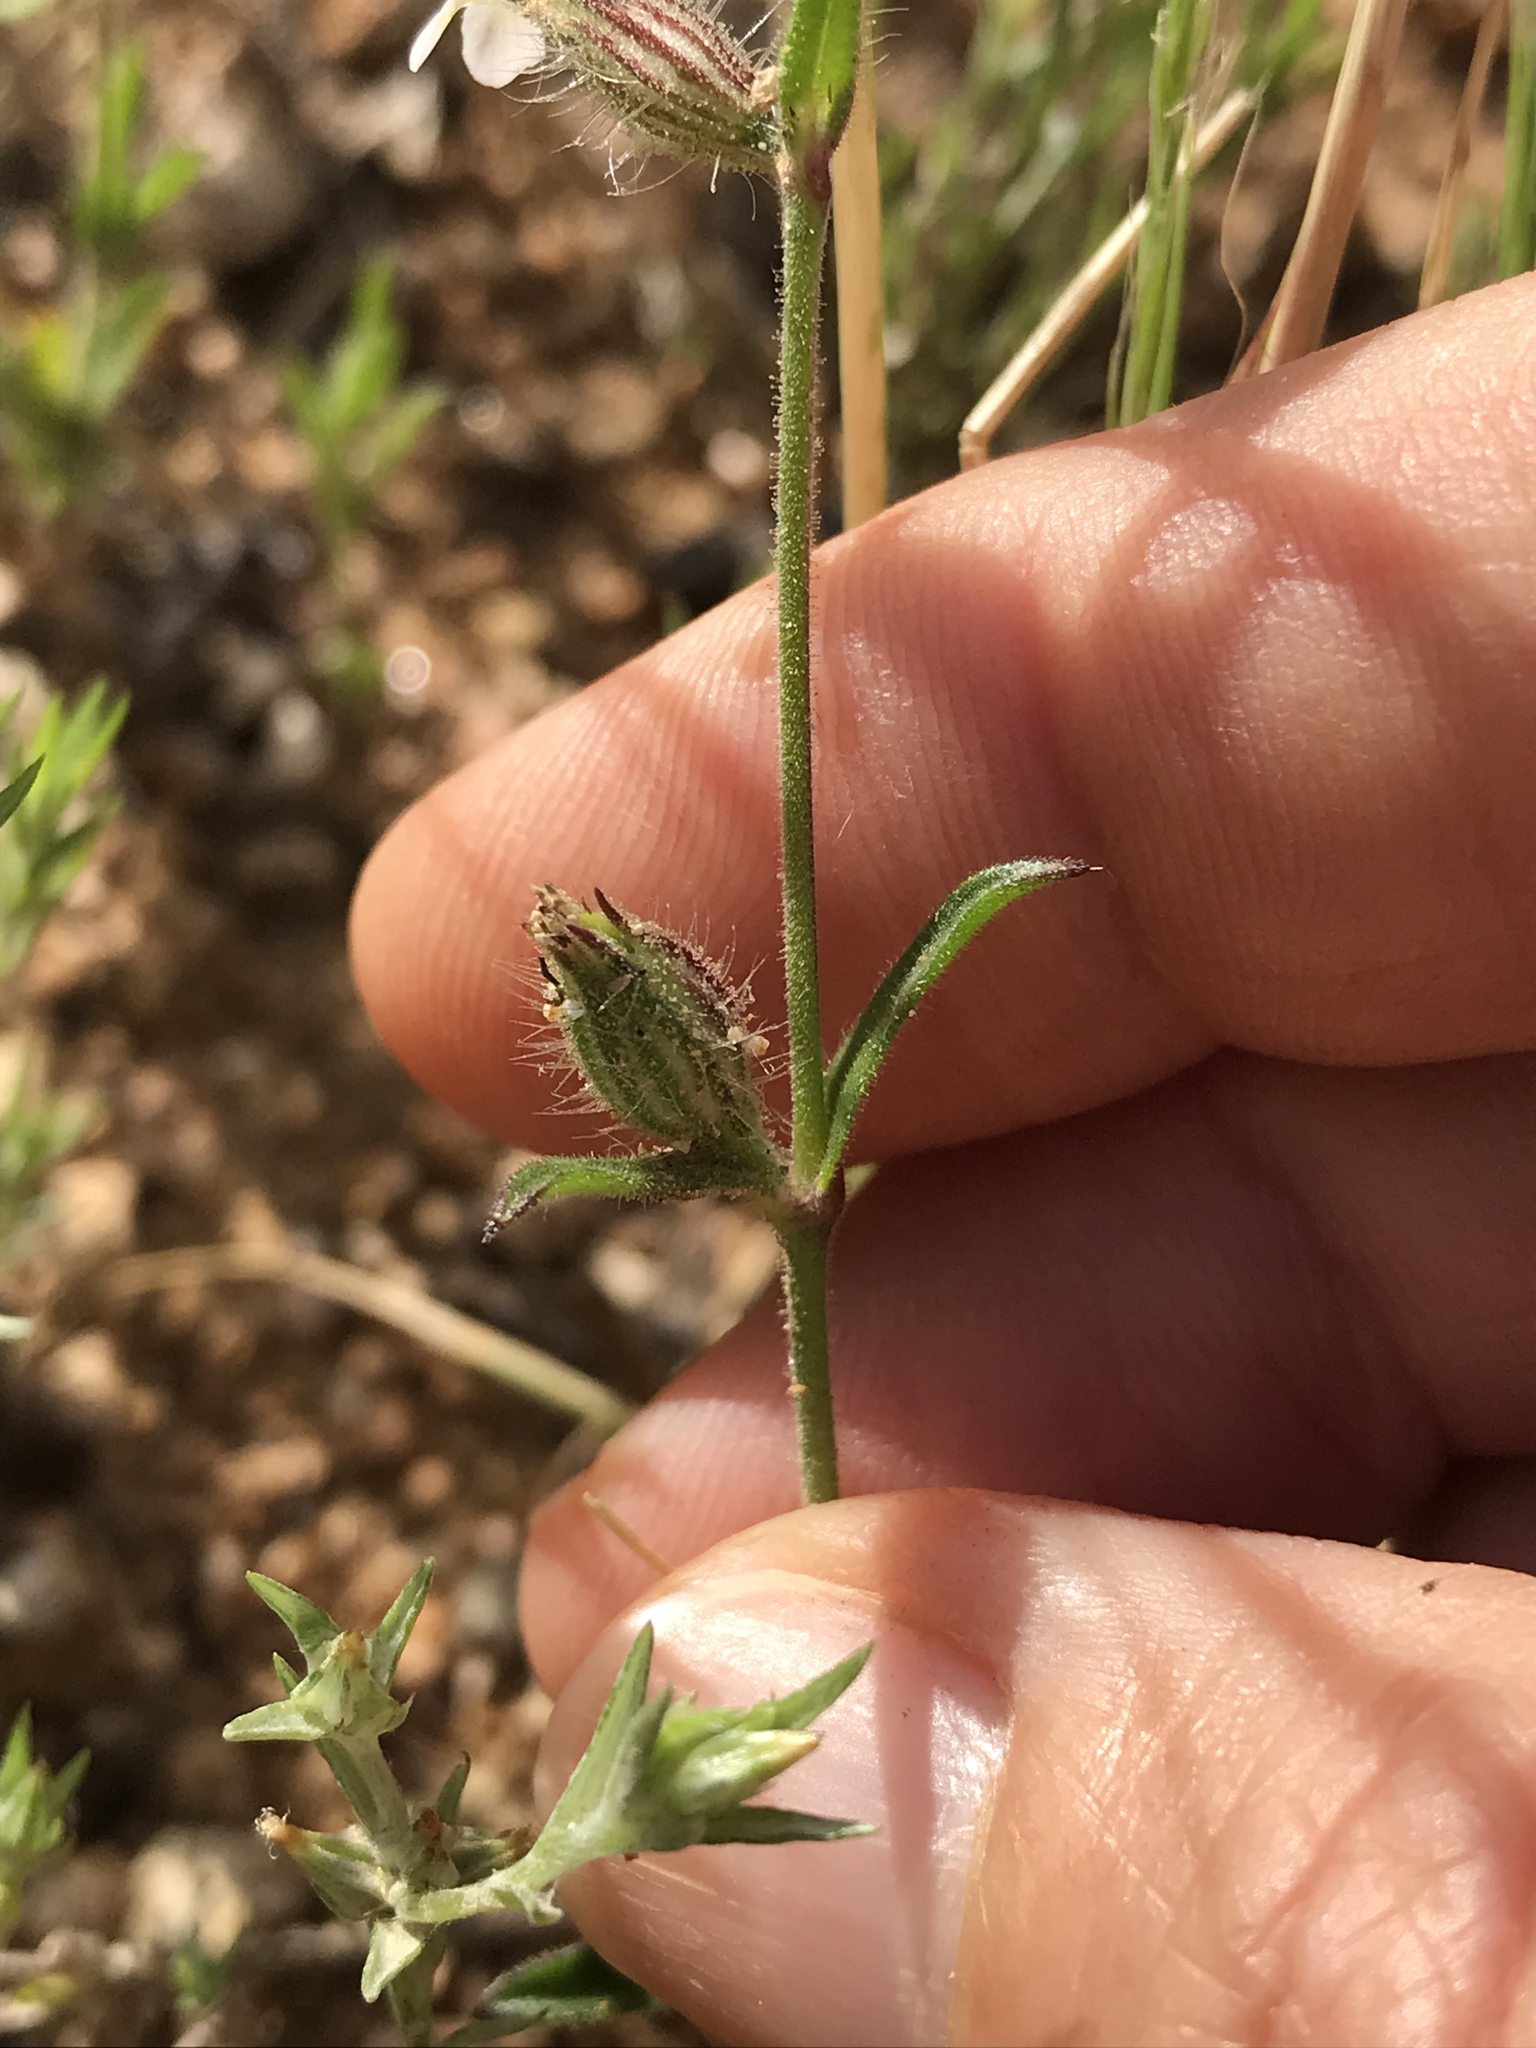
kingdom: Plantae
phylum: Tracheophyta
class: Magnoliopsida
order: Caryophyllales
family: Caryophyllaceae
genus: Silene
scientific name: Silene gallica
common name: Small-flowered catchfly
